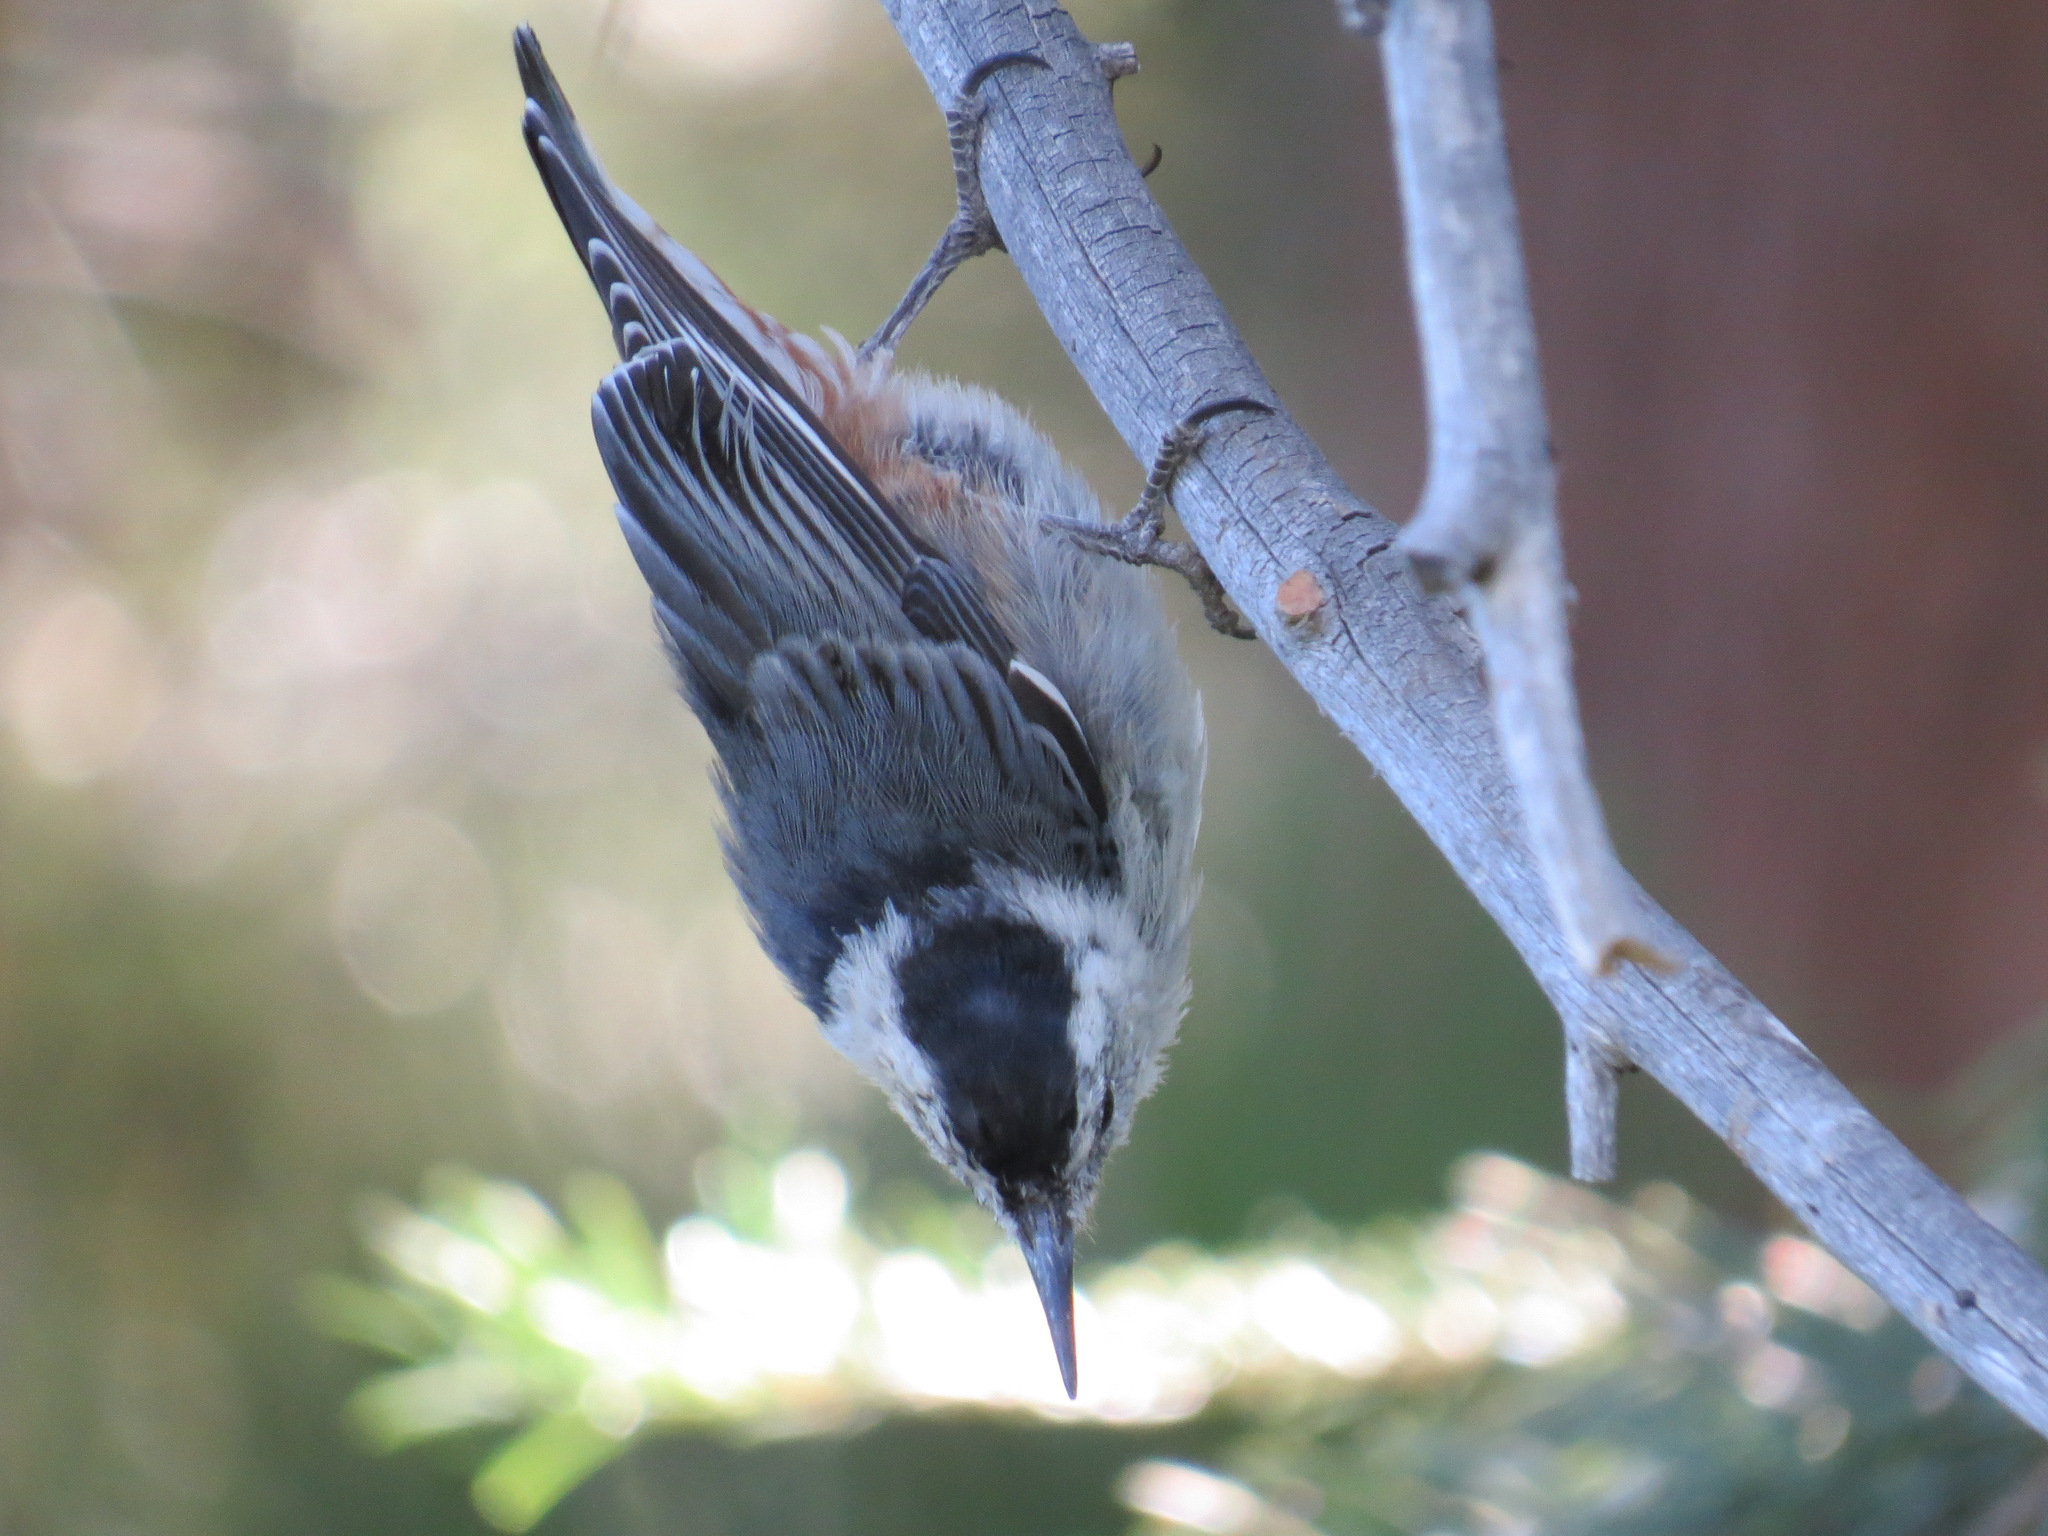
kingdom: Animalia
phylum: Chordata
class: Aves
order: Passeriformes
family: Sittidae
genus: Sitta
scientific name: Sitta carolinensis
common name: White-breasted nuthatch
